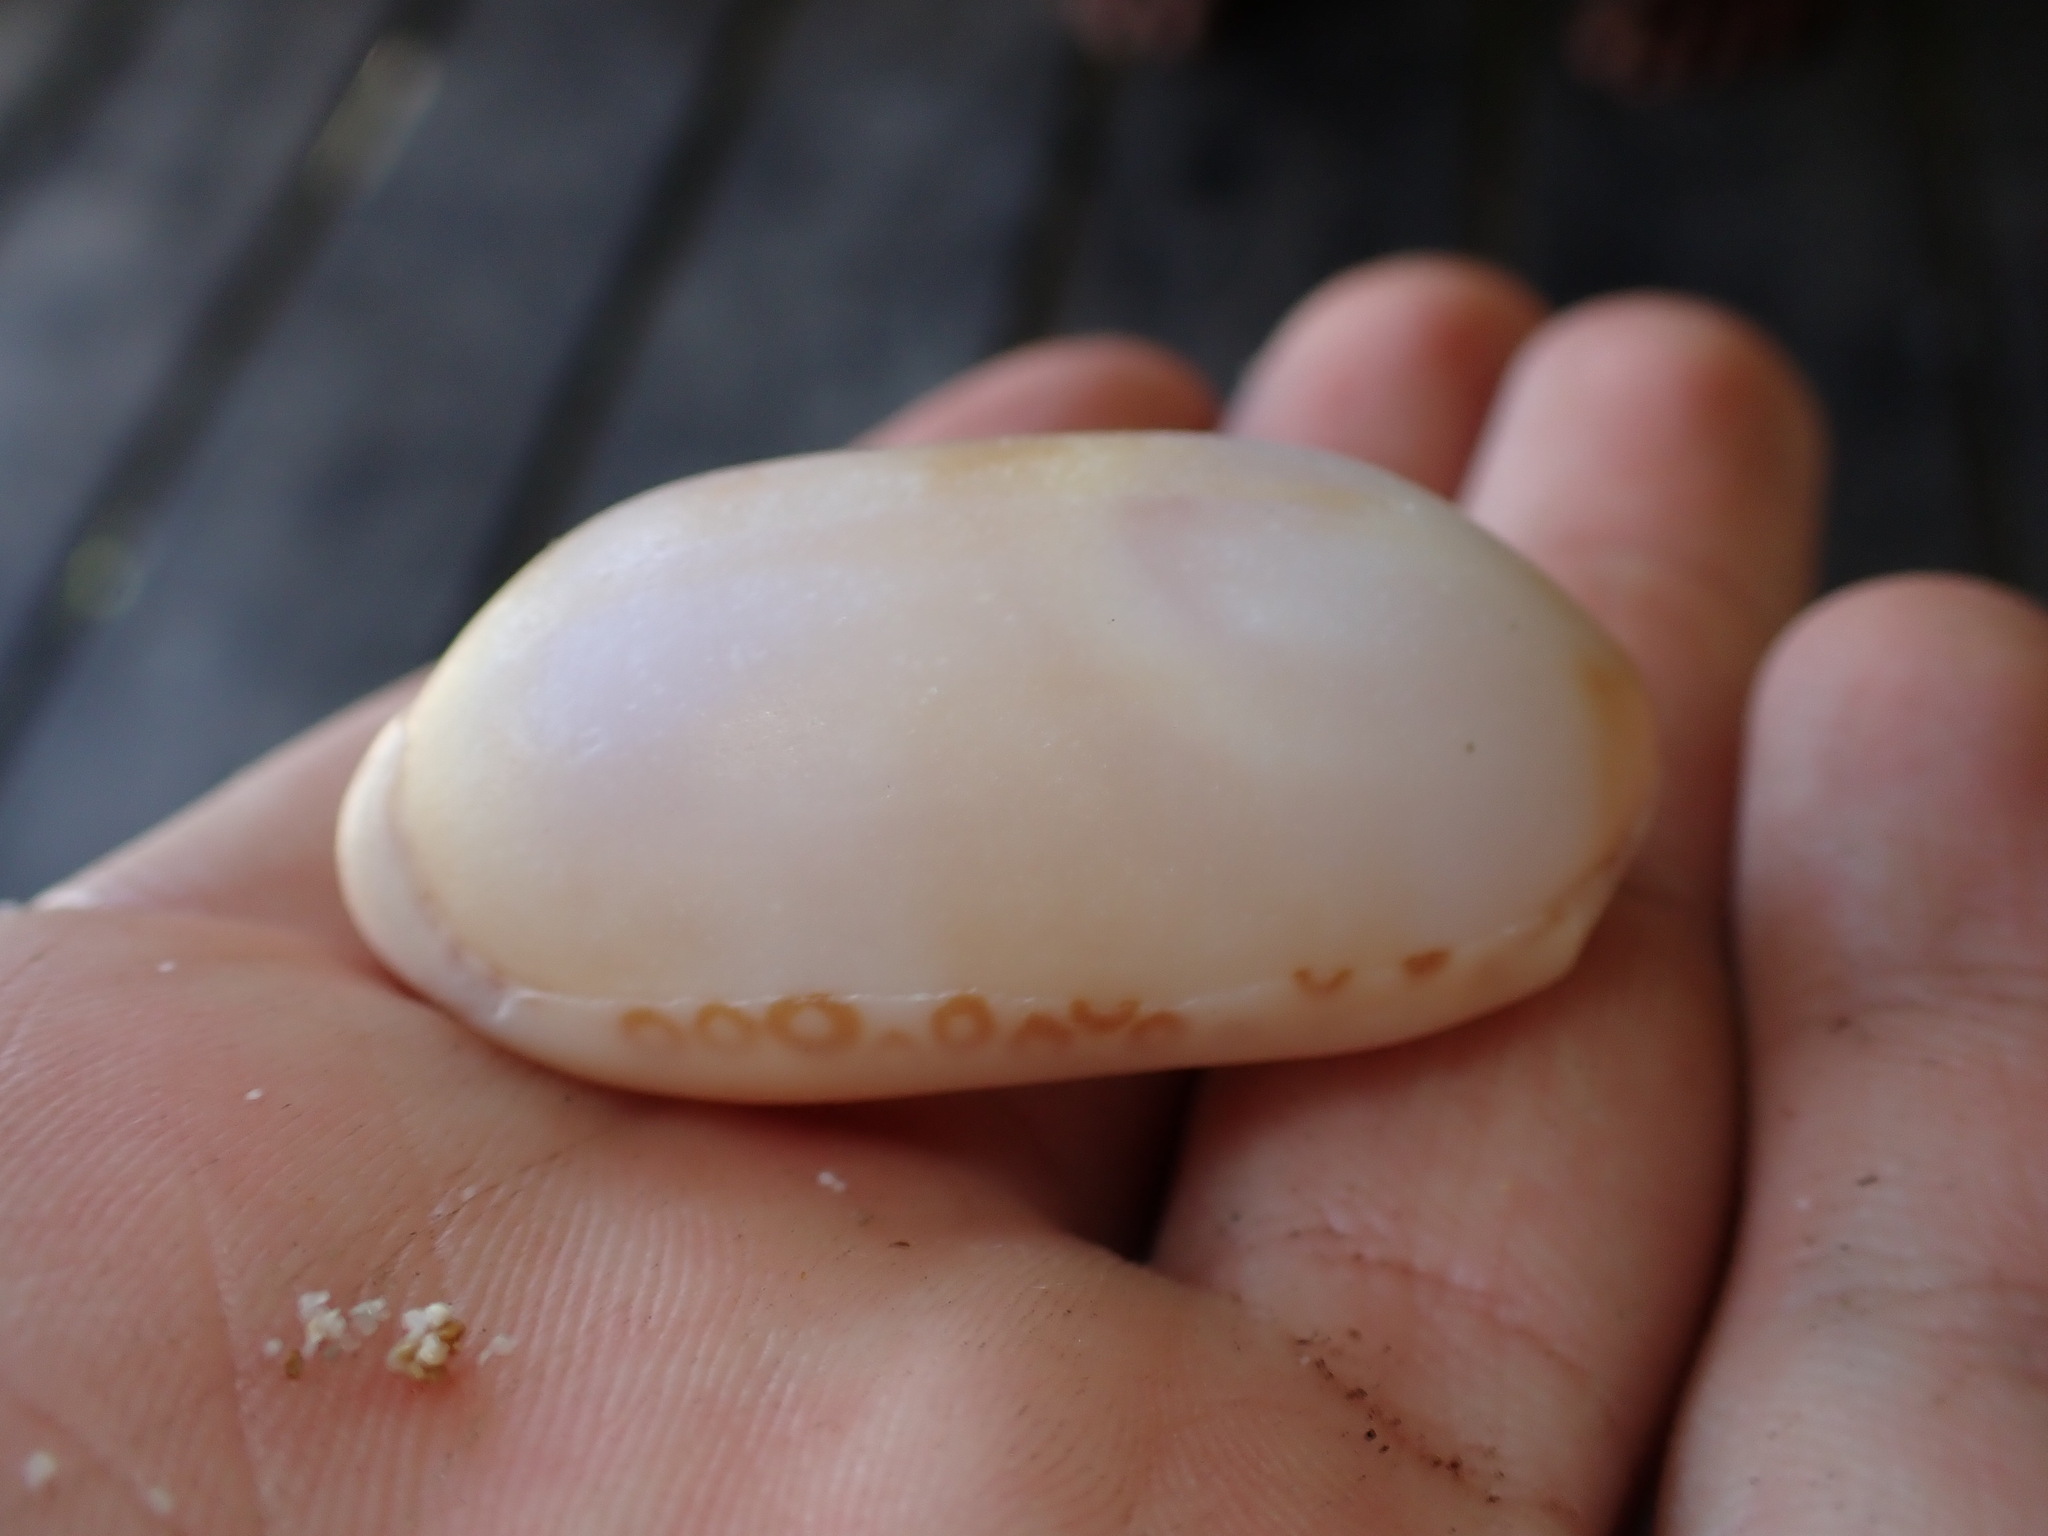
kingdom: Animalia
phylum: Mollusca
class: Gastropoda
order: Littorinimorpha
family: Cypraeidae
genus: Arestorides
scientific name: Arestorides argus
